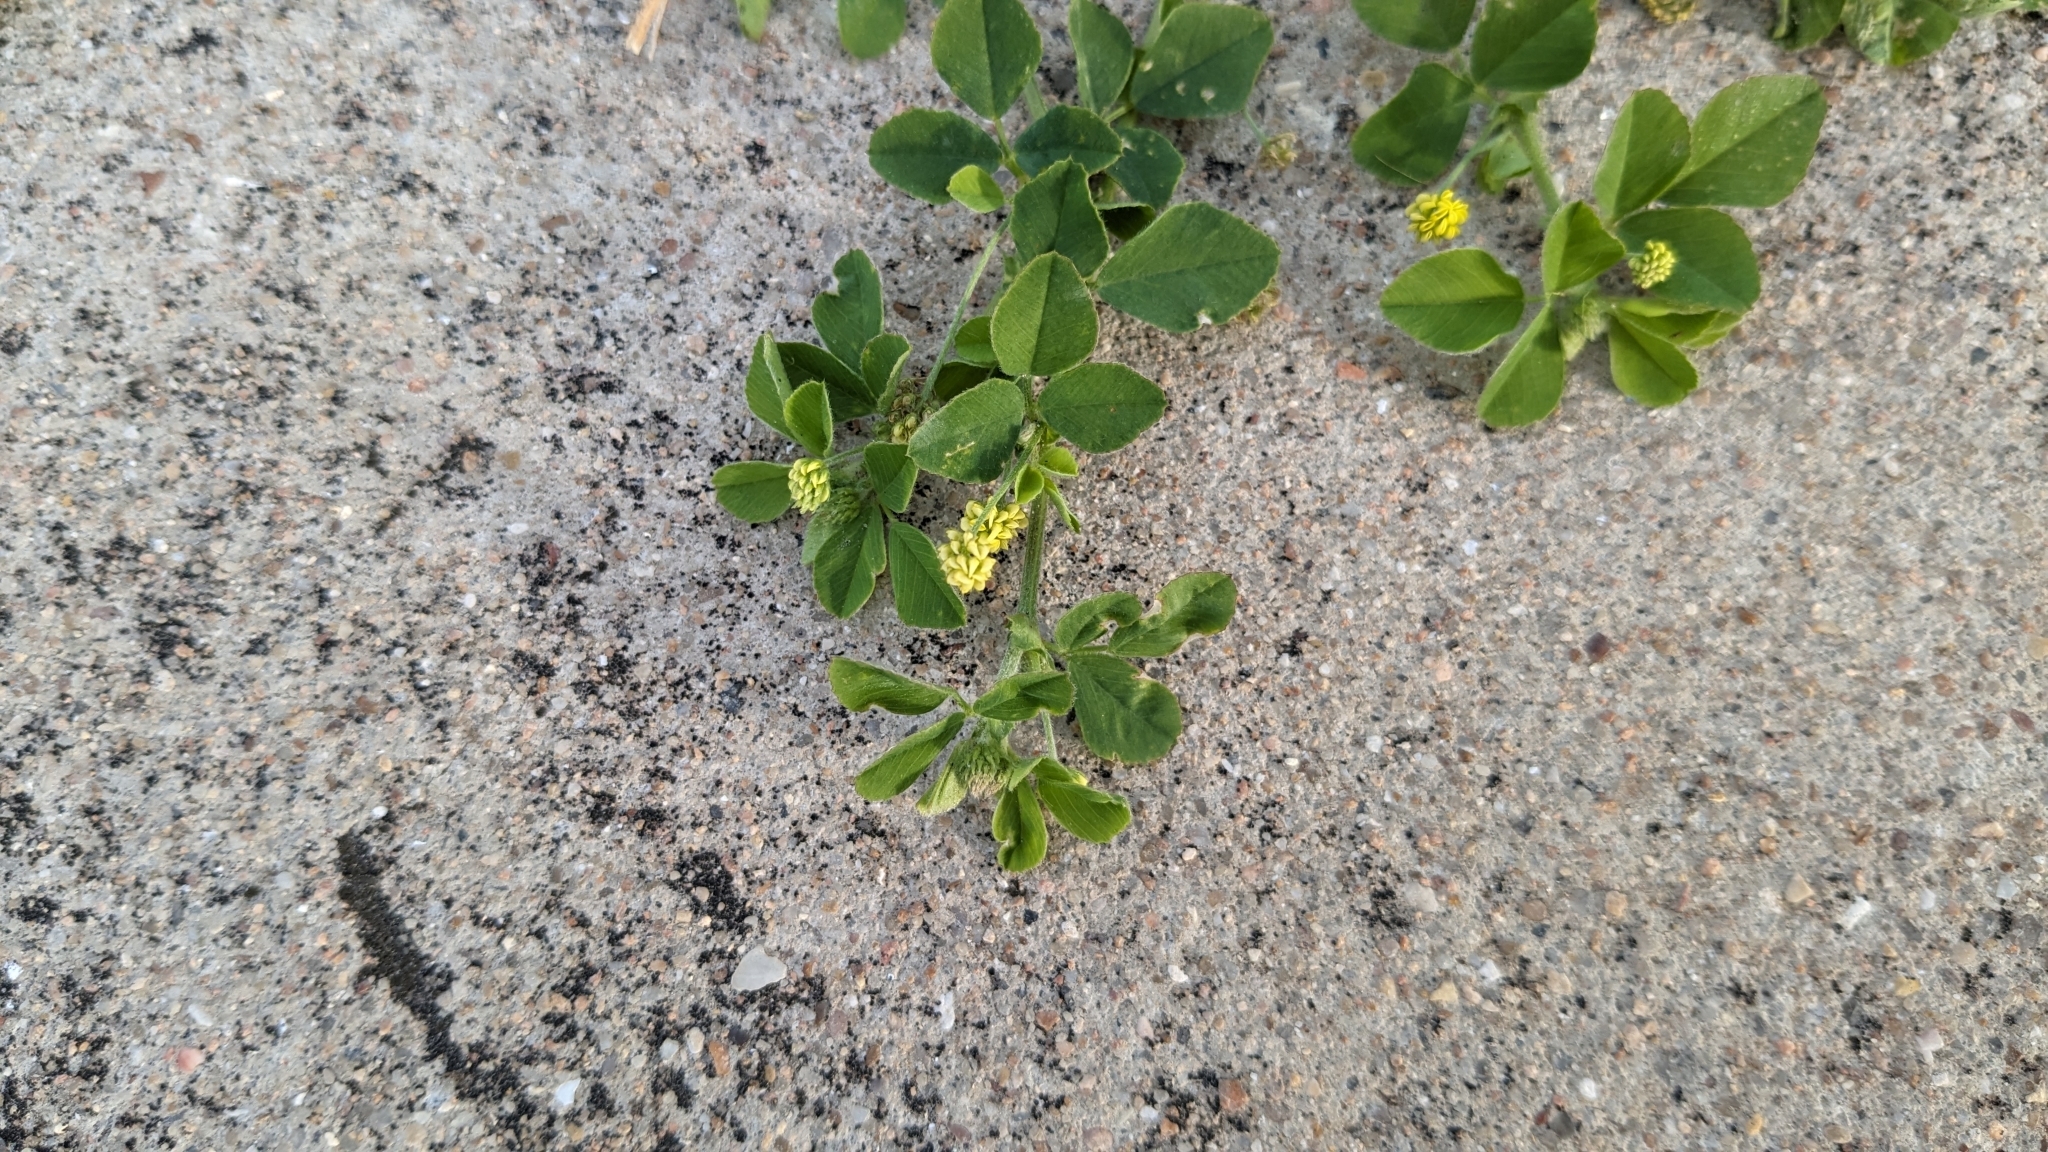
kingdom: Plantae
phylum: Tracheophyta
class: Magnoliopsida
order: Fabales
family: Fabaceae
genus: Medicago
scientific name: Medicago lupulina
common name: Black medick
